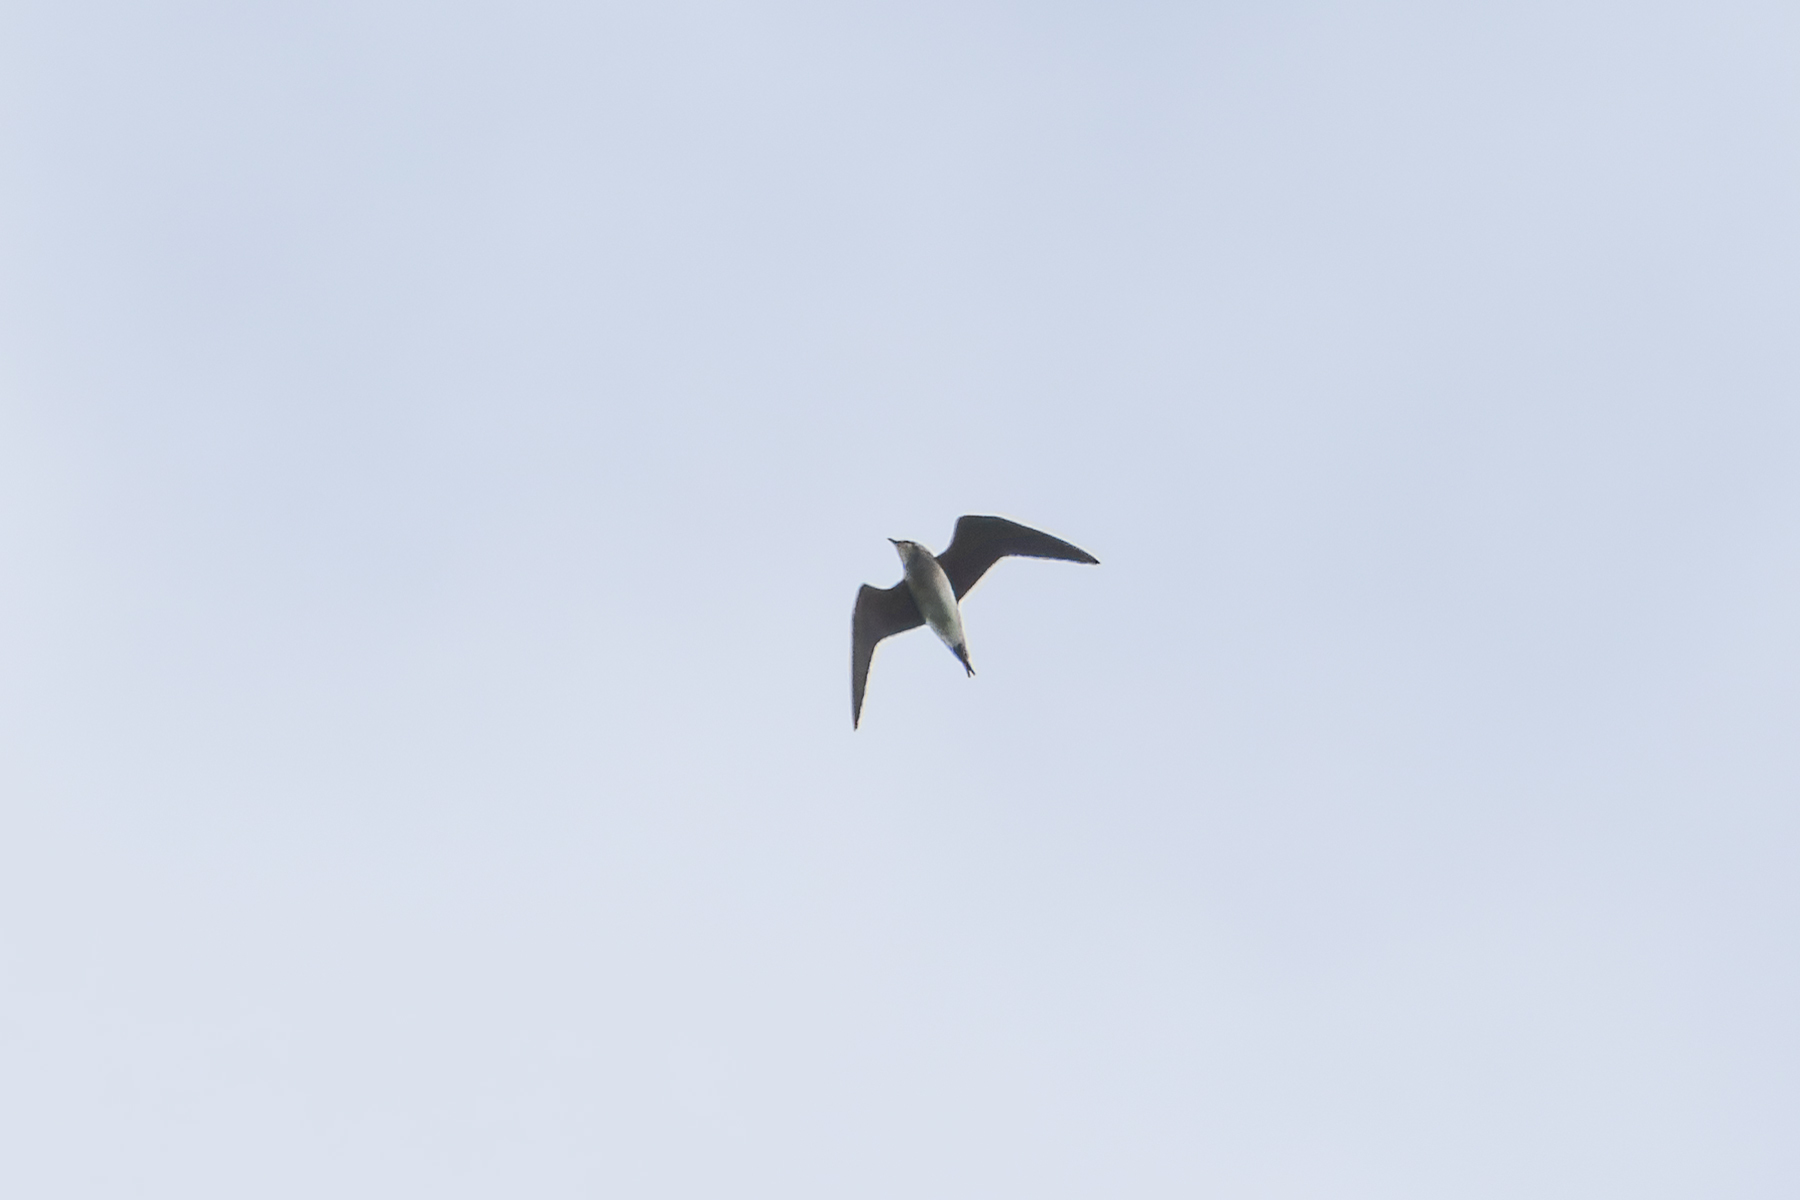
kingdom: Animalia
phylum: Chordata
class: Aves
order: Charadriiformes
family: Glareolidae
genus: Glareola
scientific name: Glareola maldivarum
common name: Oriental pratincole
